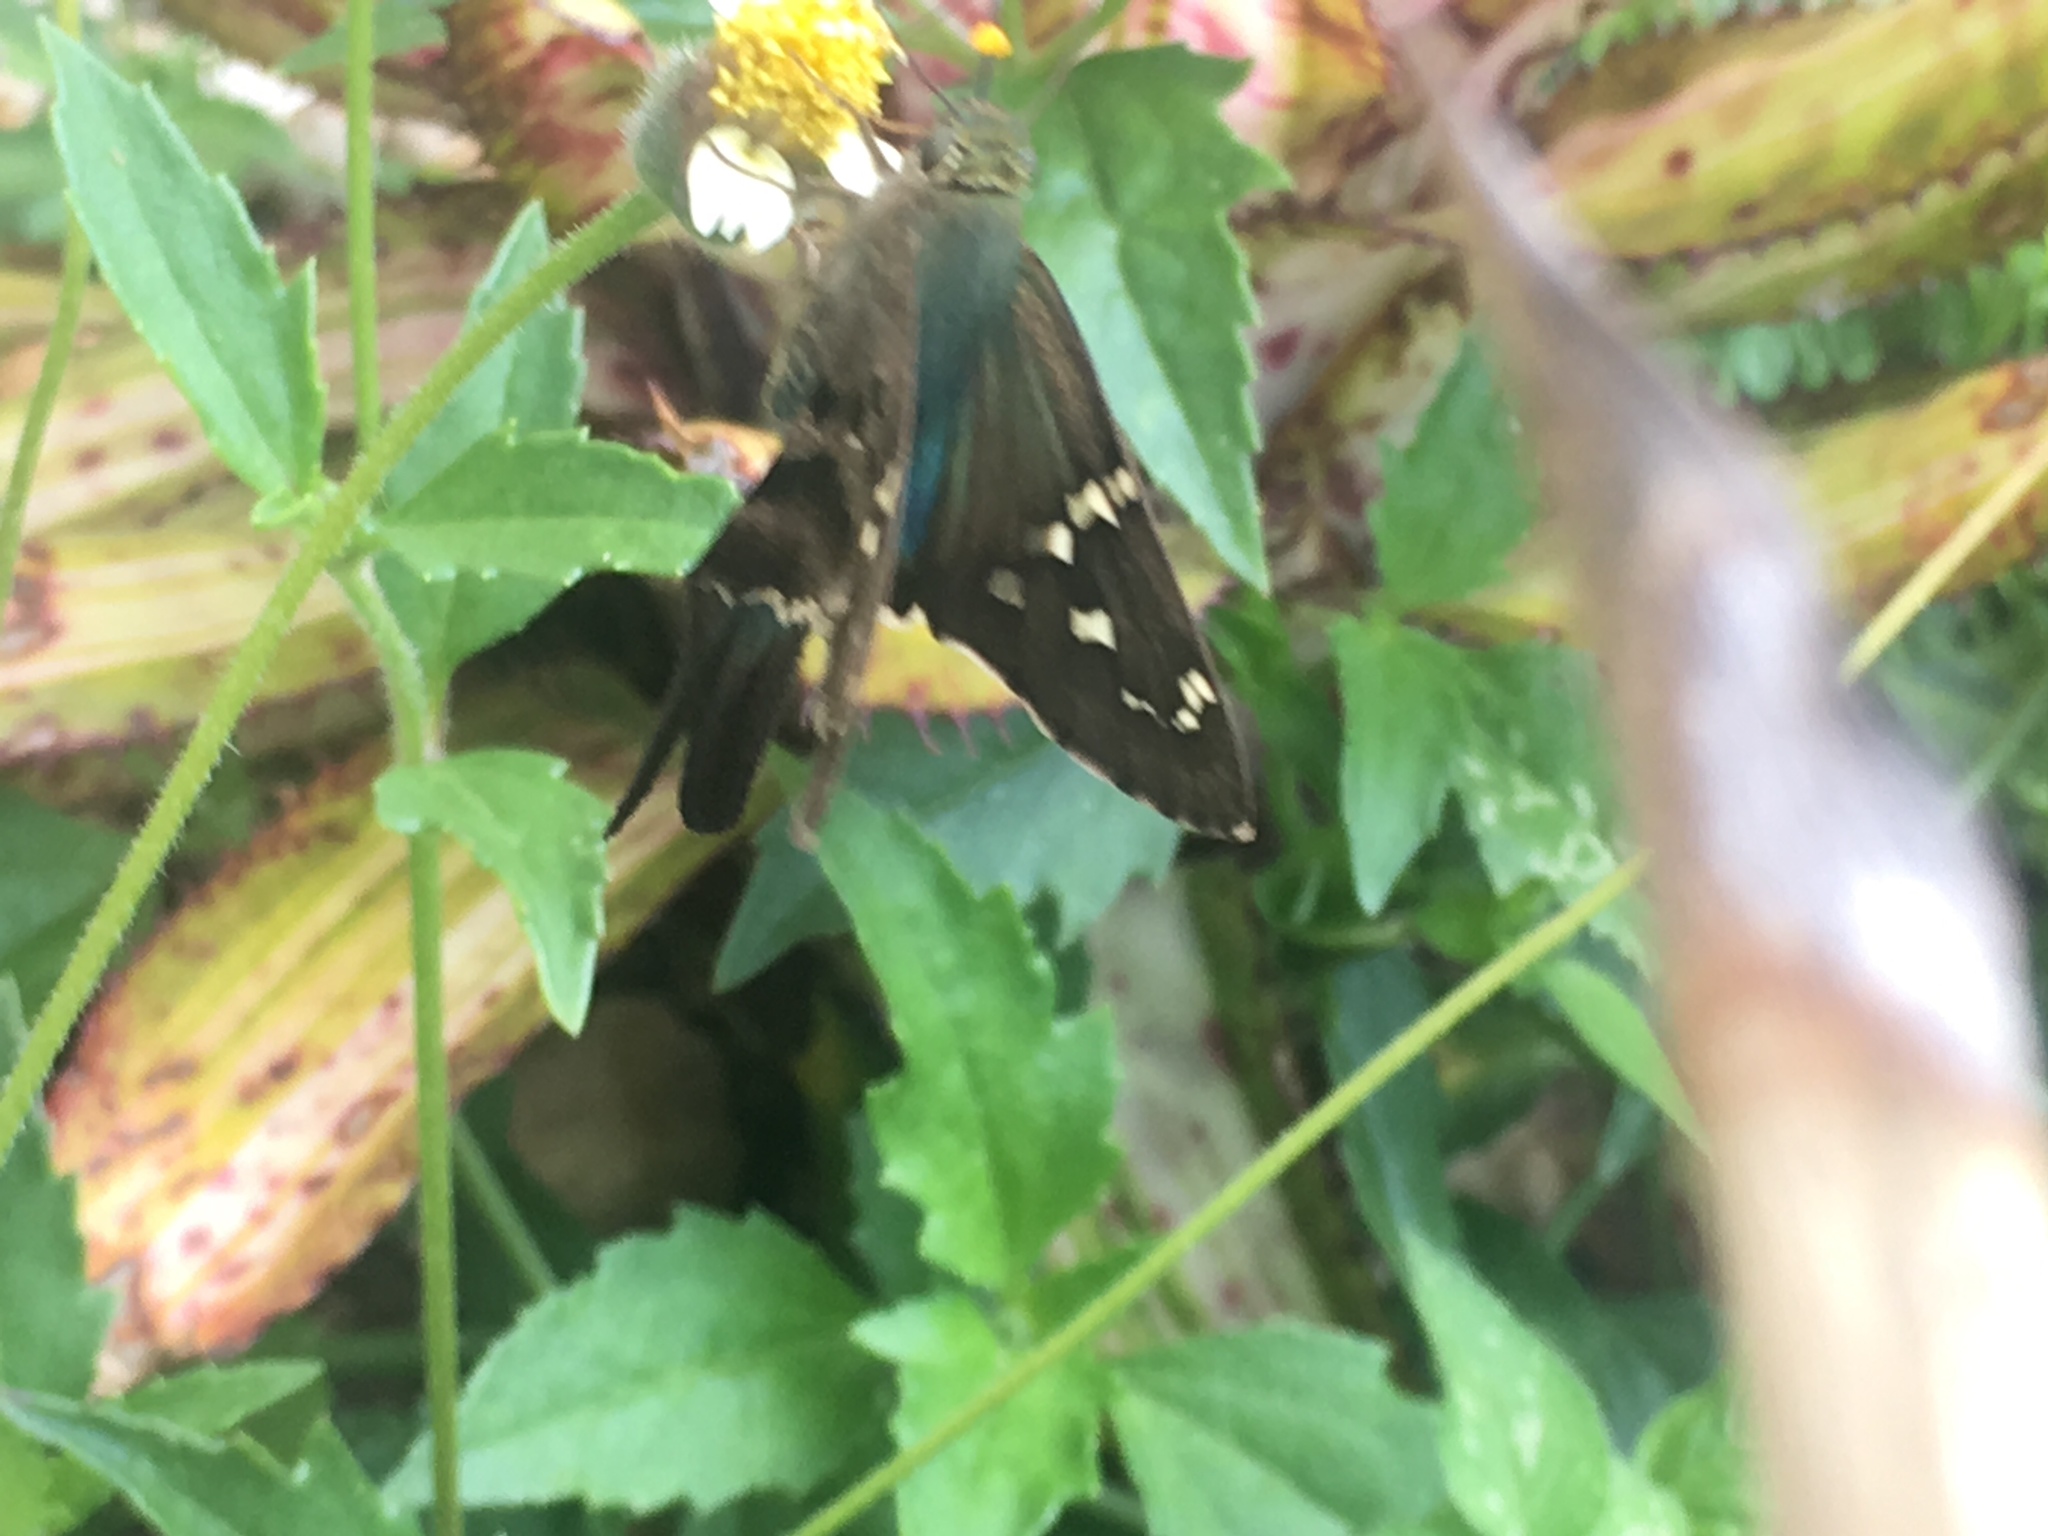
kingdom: Animalia
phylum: Arthropoda
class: Insecta
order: Lepidoptera
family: Hesperiidae
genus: Urbanus
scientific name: Urbanus proteus
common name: Long-tailed skipper
